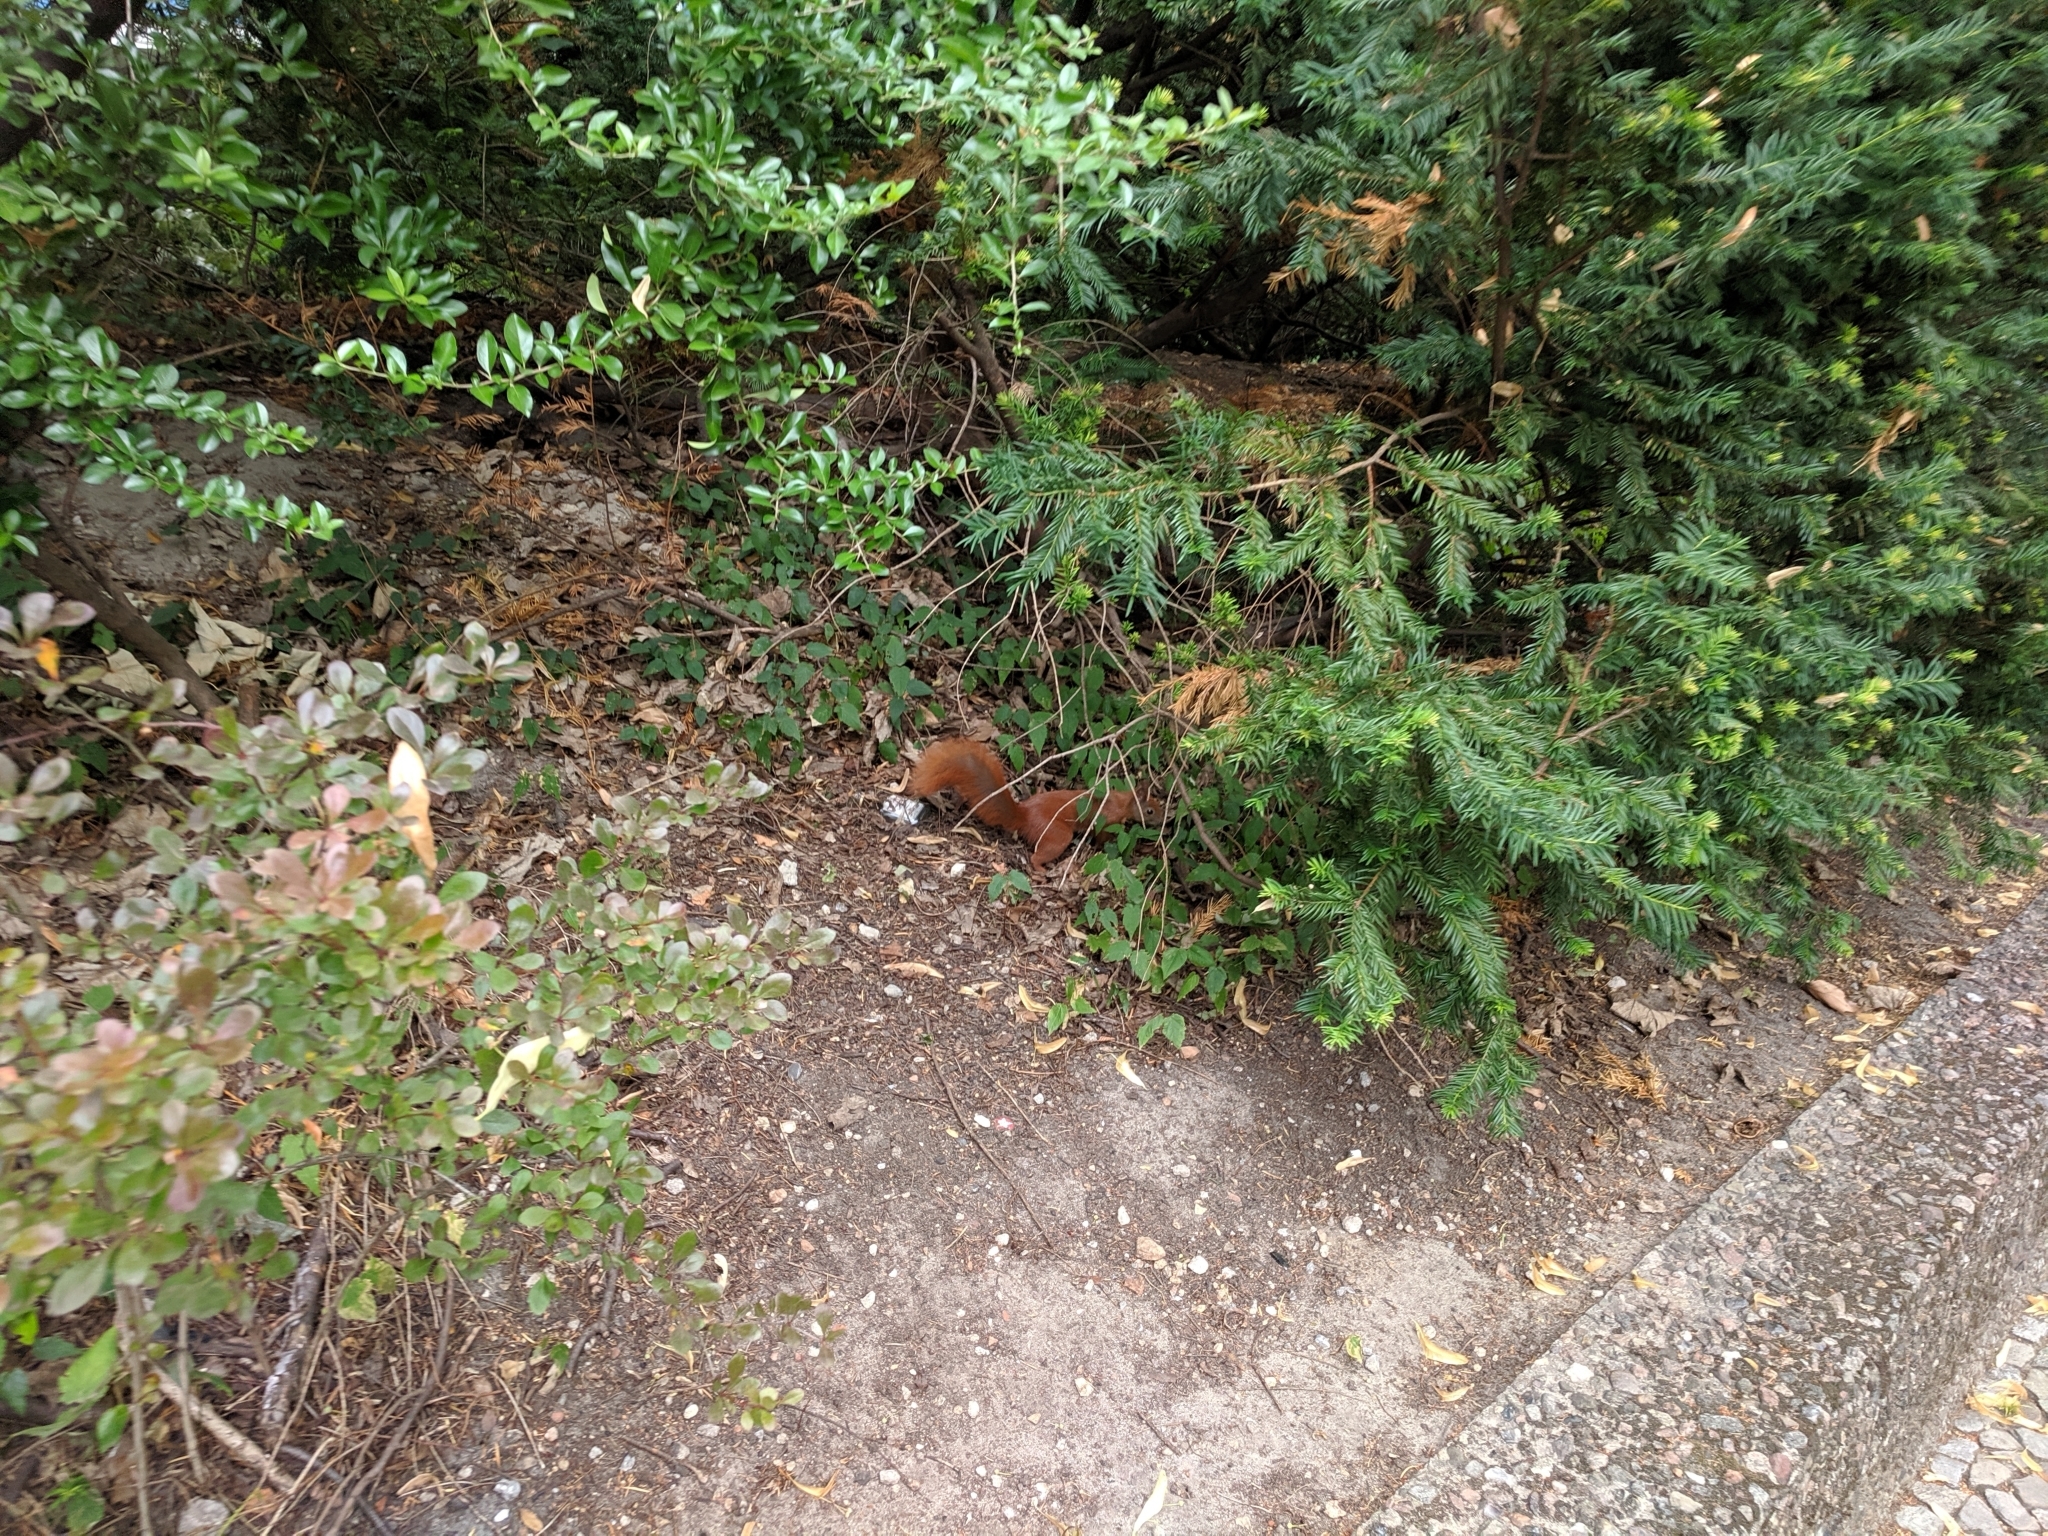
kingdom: Animalia
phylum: Chordata
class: Mammalia
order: Rodentia
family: Sciuridae
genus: Sciurus
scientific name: Sciurus vulgaris
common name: Eurasian red squirrel
